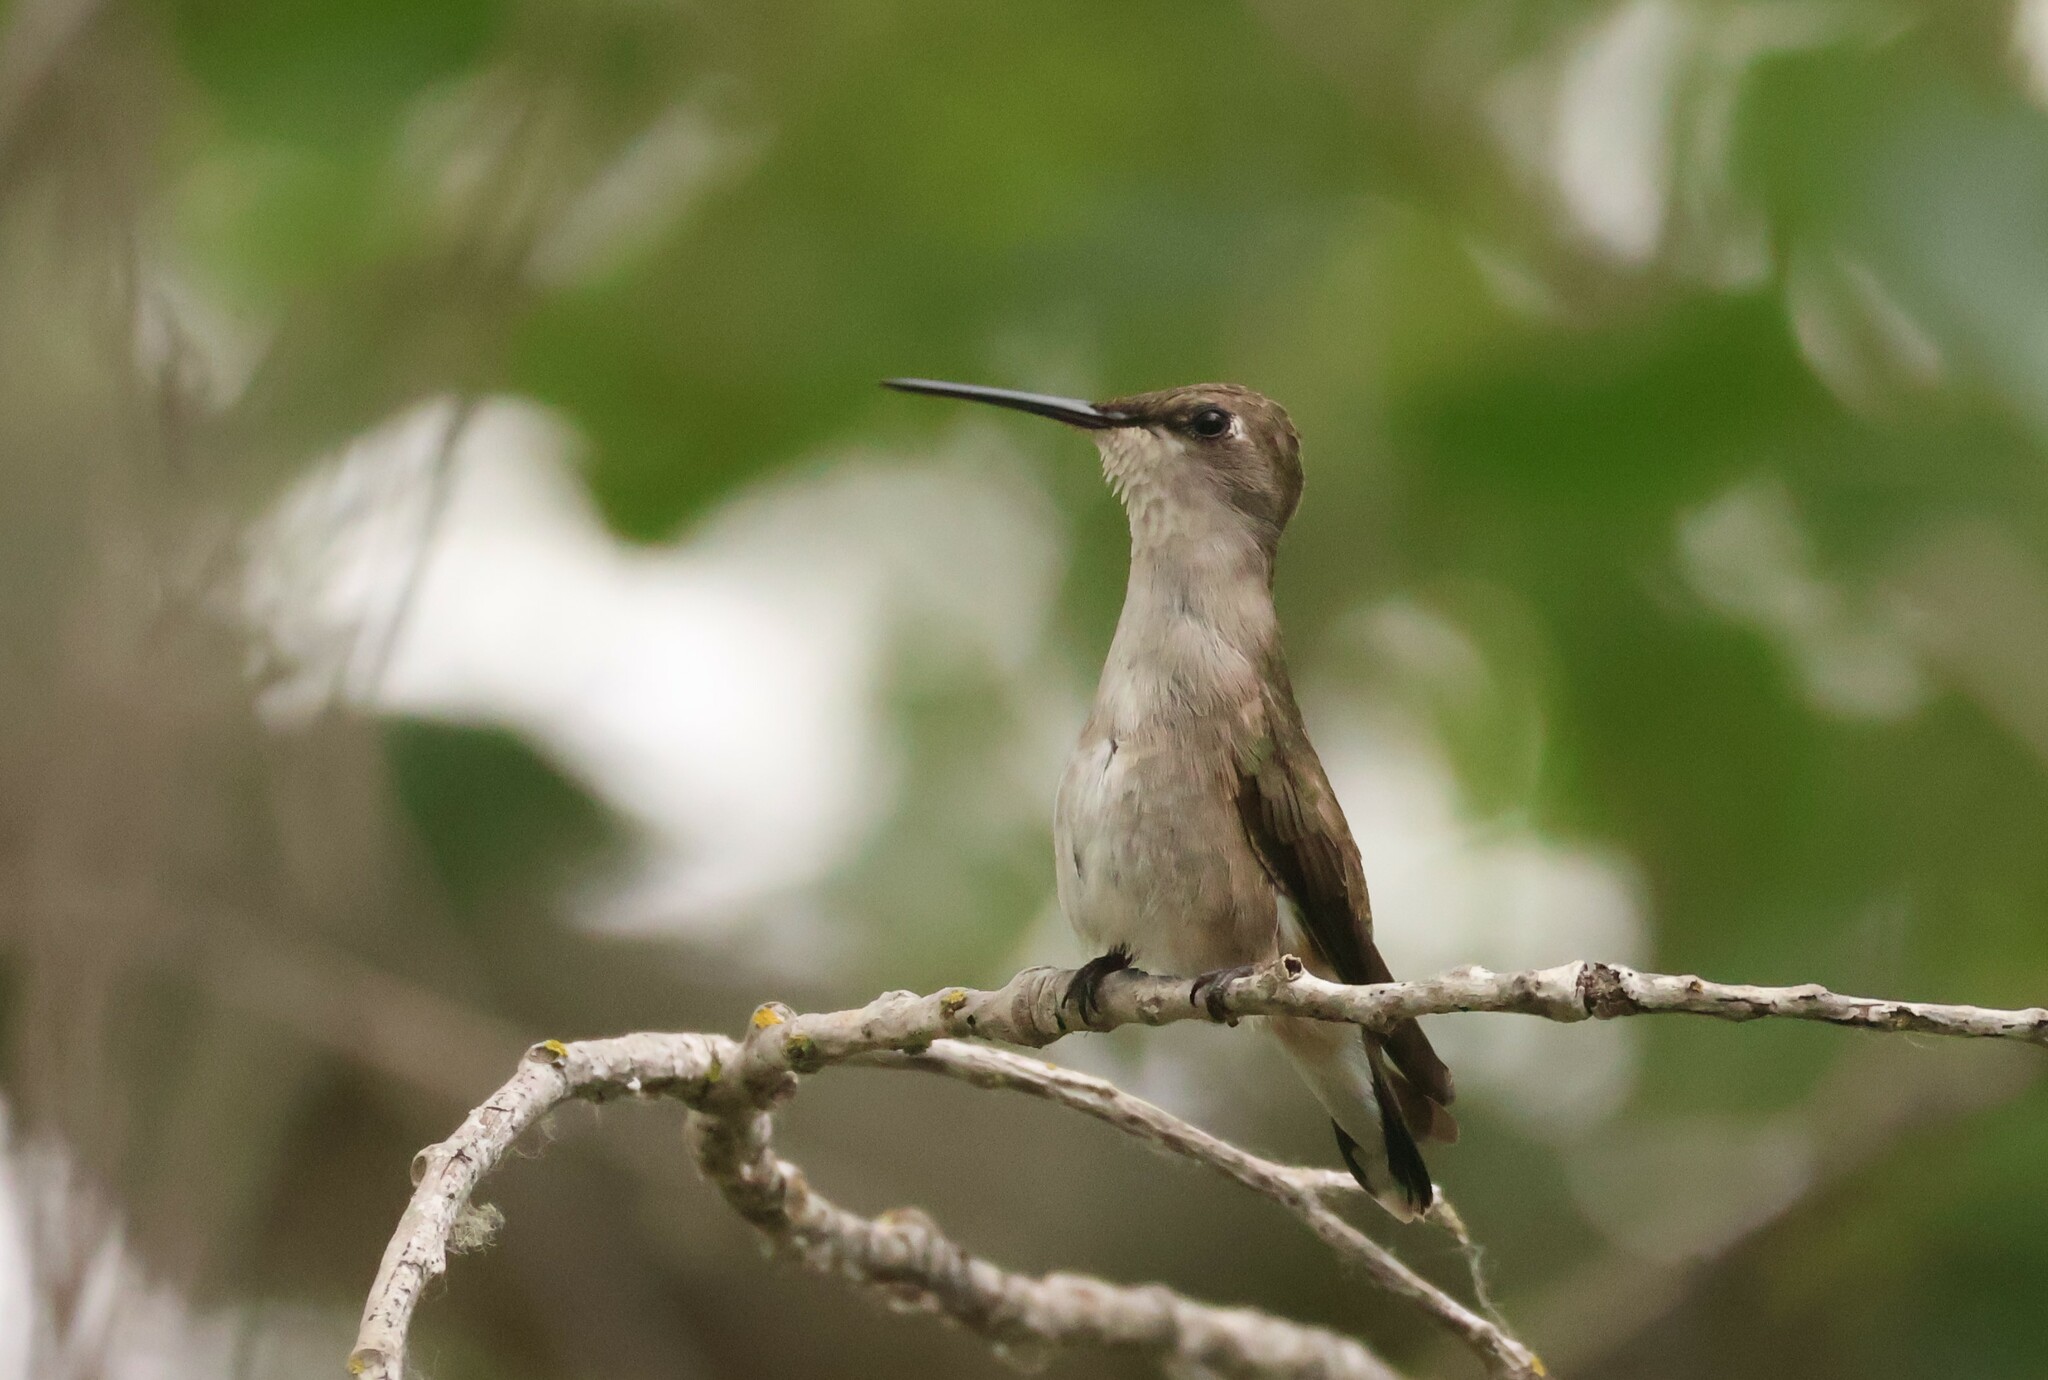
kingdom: Animalia
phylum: Chordata
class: Aves
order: Apodiformes
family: Trochilidae
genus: Archilochus
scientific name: Archilochus alexandri
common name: Black-chinned hummingbird
